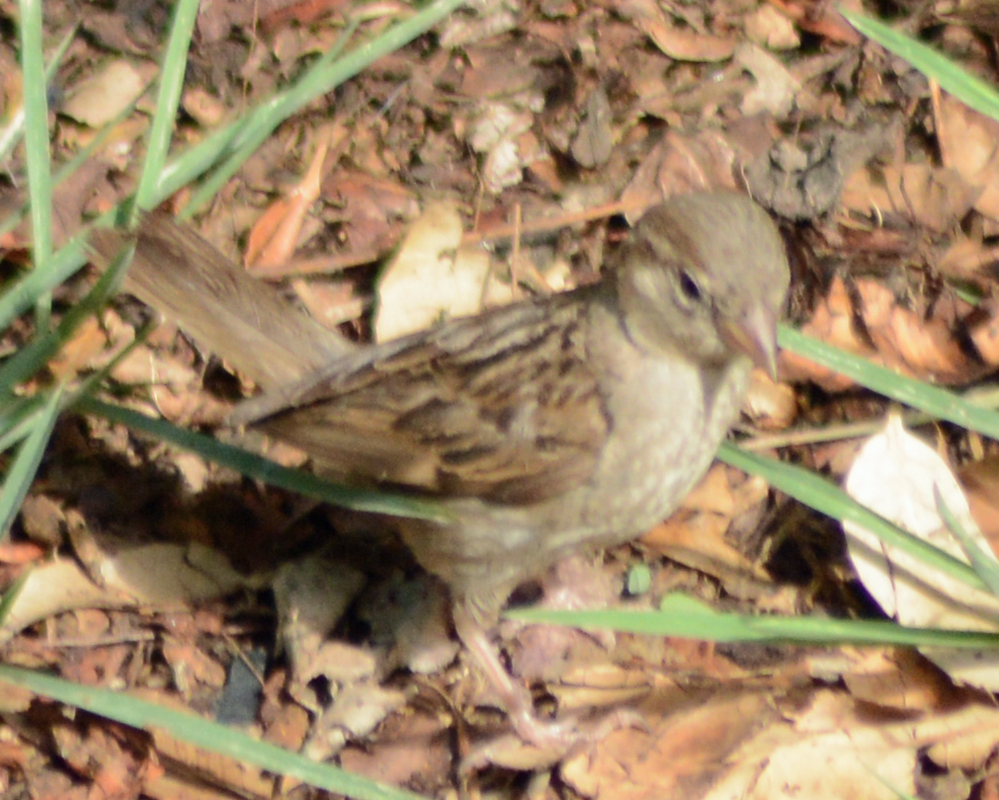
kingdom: Animalia
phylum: Chordata
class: Aves
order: Passeriformes
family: Passeridae
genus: Passer
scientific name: Passer domesticus
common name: House sparrow
